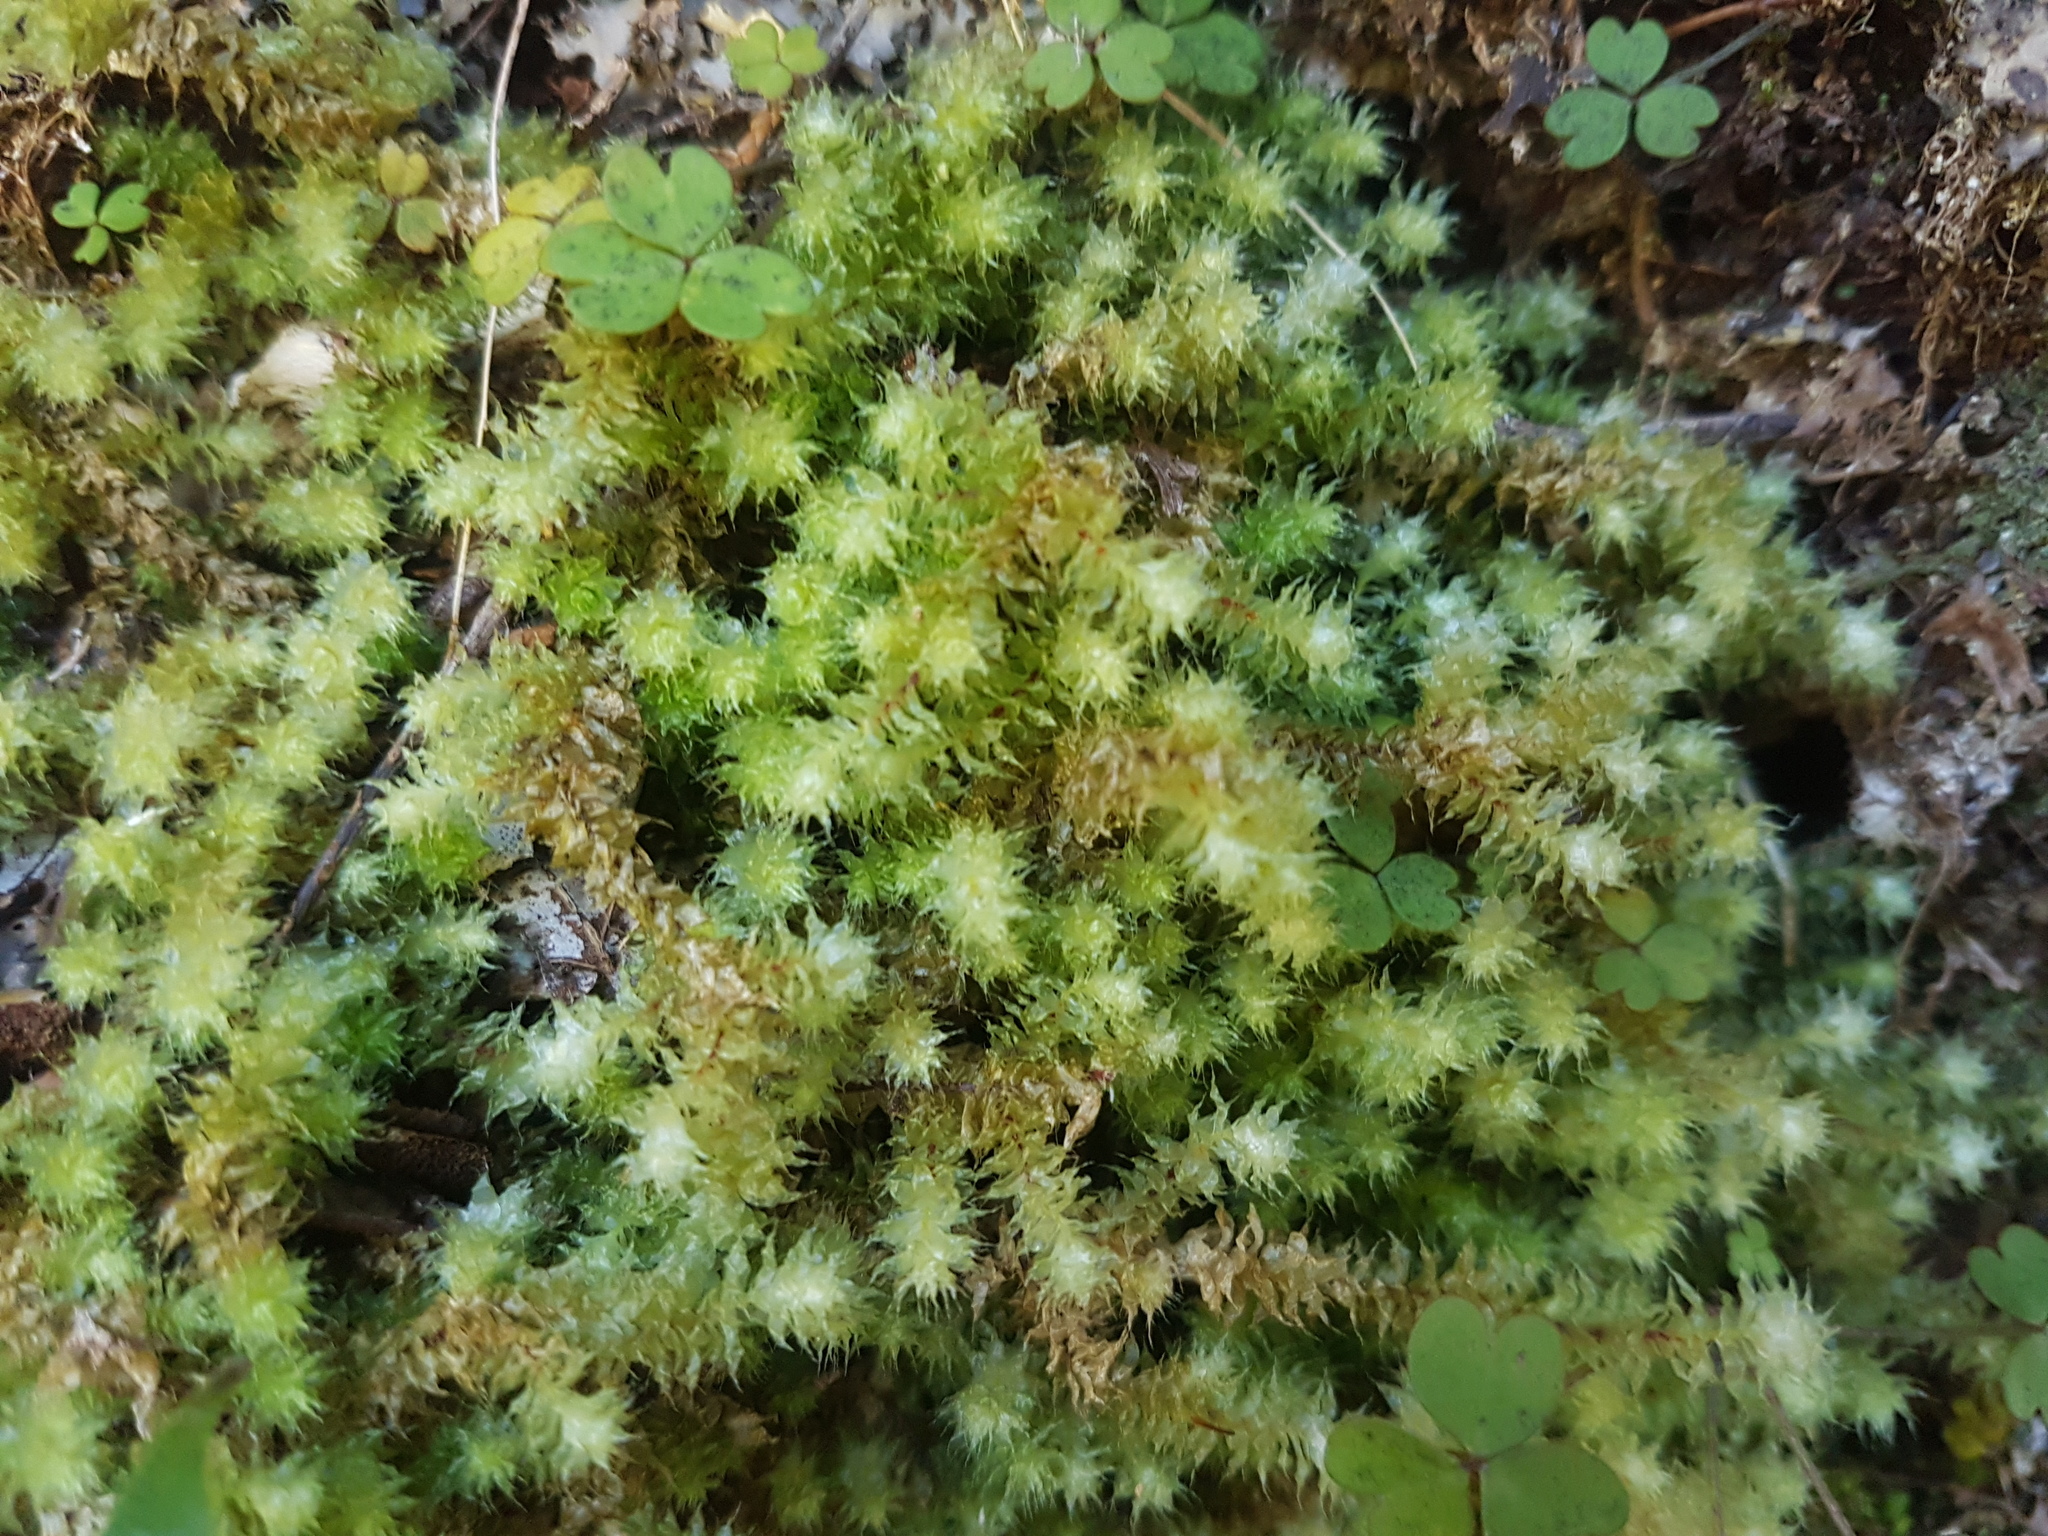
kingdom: Plantae
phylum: Bryophyta
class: Bryopsida
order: Ptychomniales
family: Ptychomniaceae
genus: Ptychomnion
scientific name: Ptychomnion aciculare
